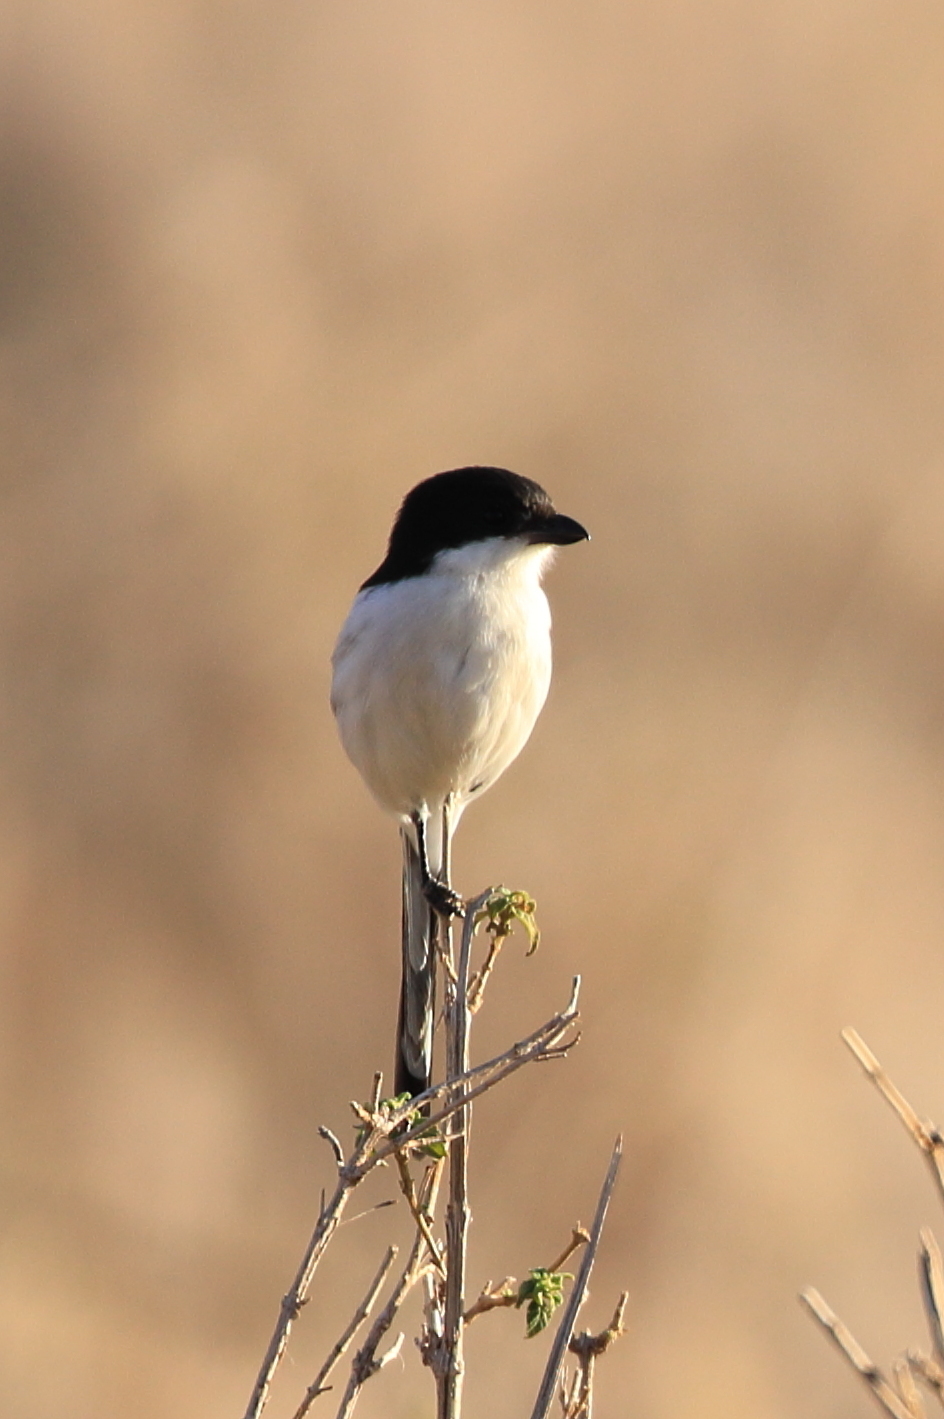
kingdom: Animalia
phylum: Chordata
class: Aves
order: Passeriformes
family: Laniidae
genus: Lanius
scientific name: Lanius humeralis
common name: Northern fiscal
